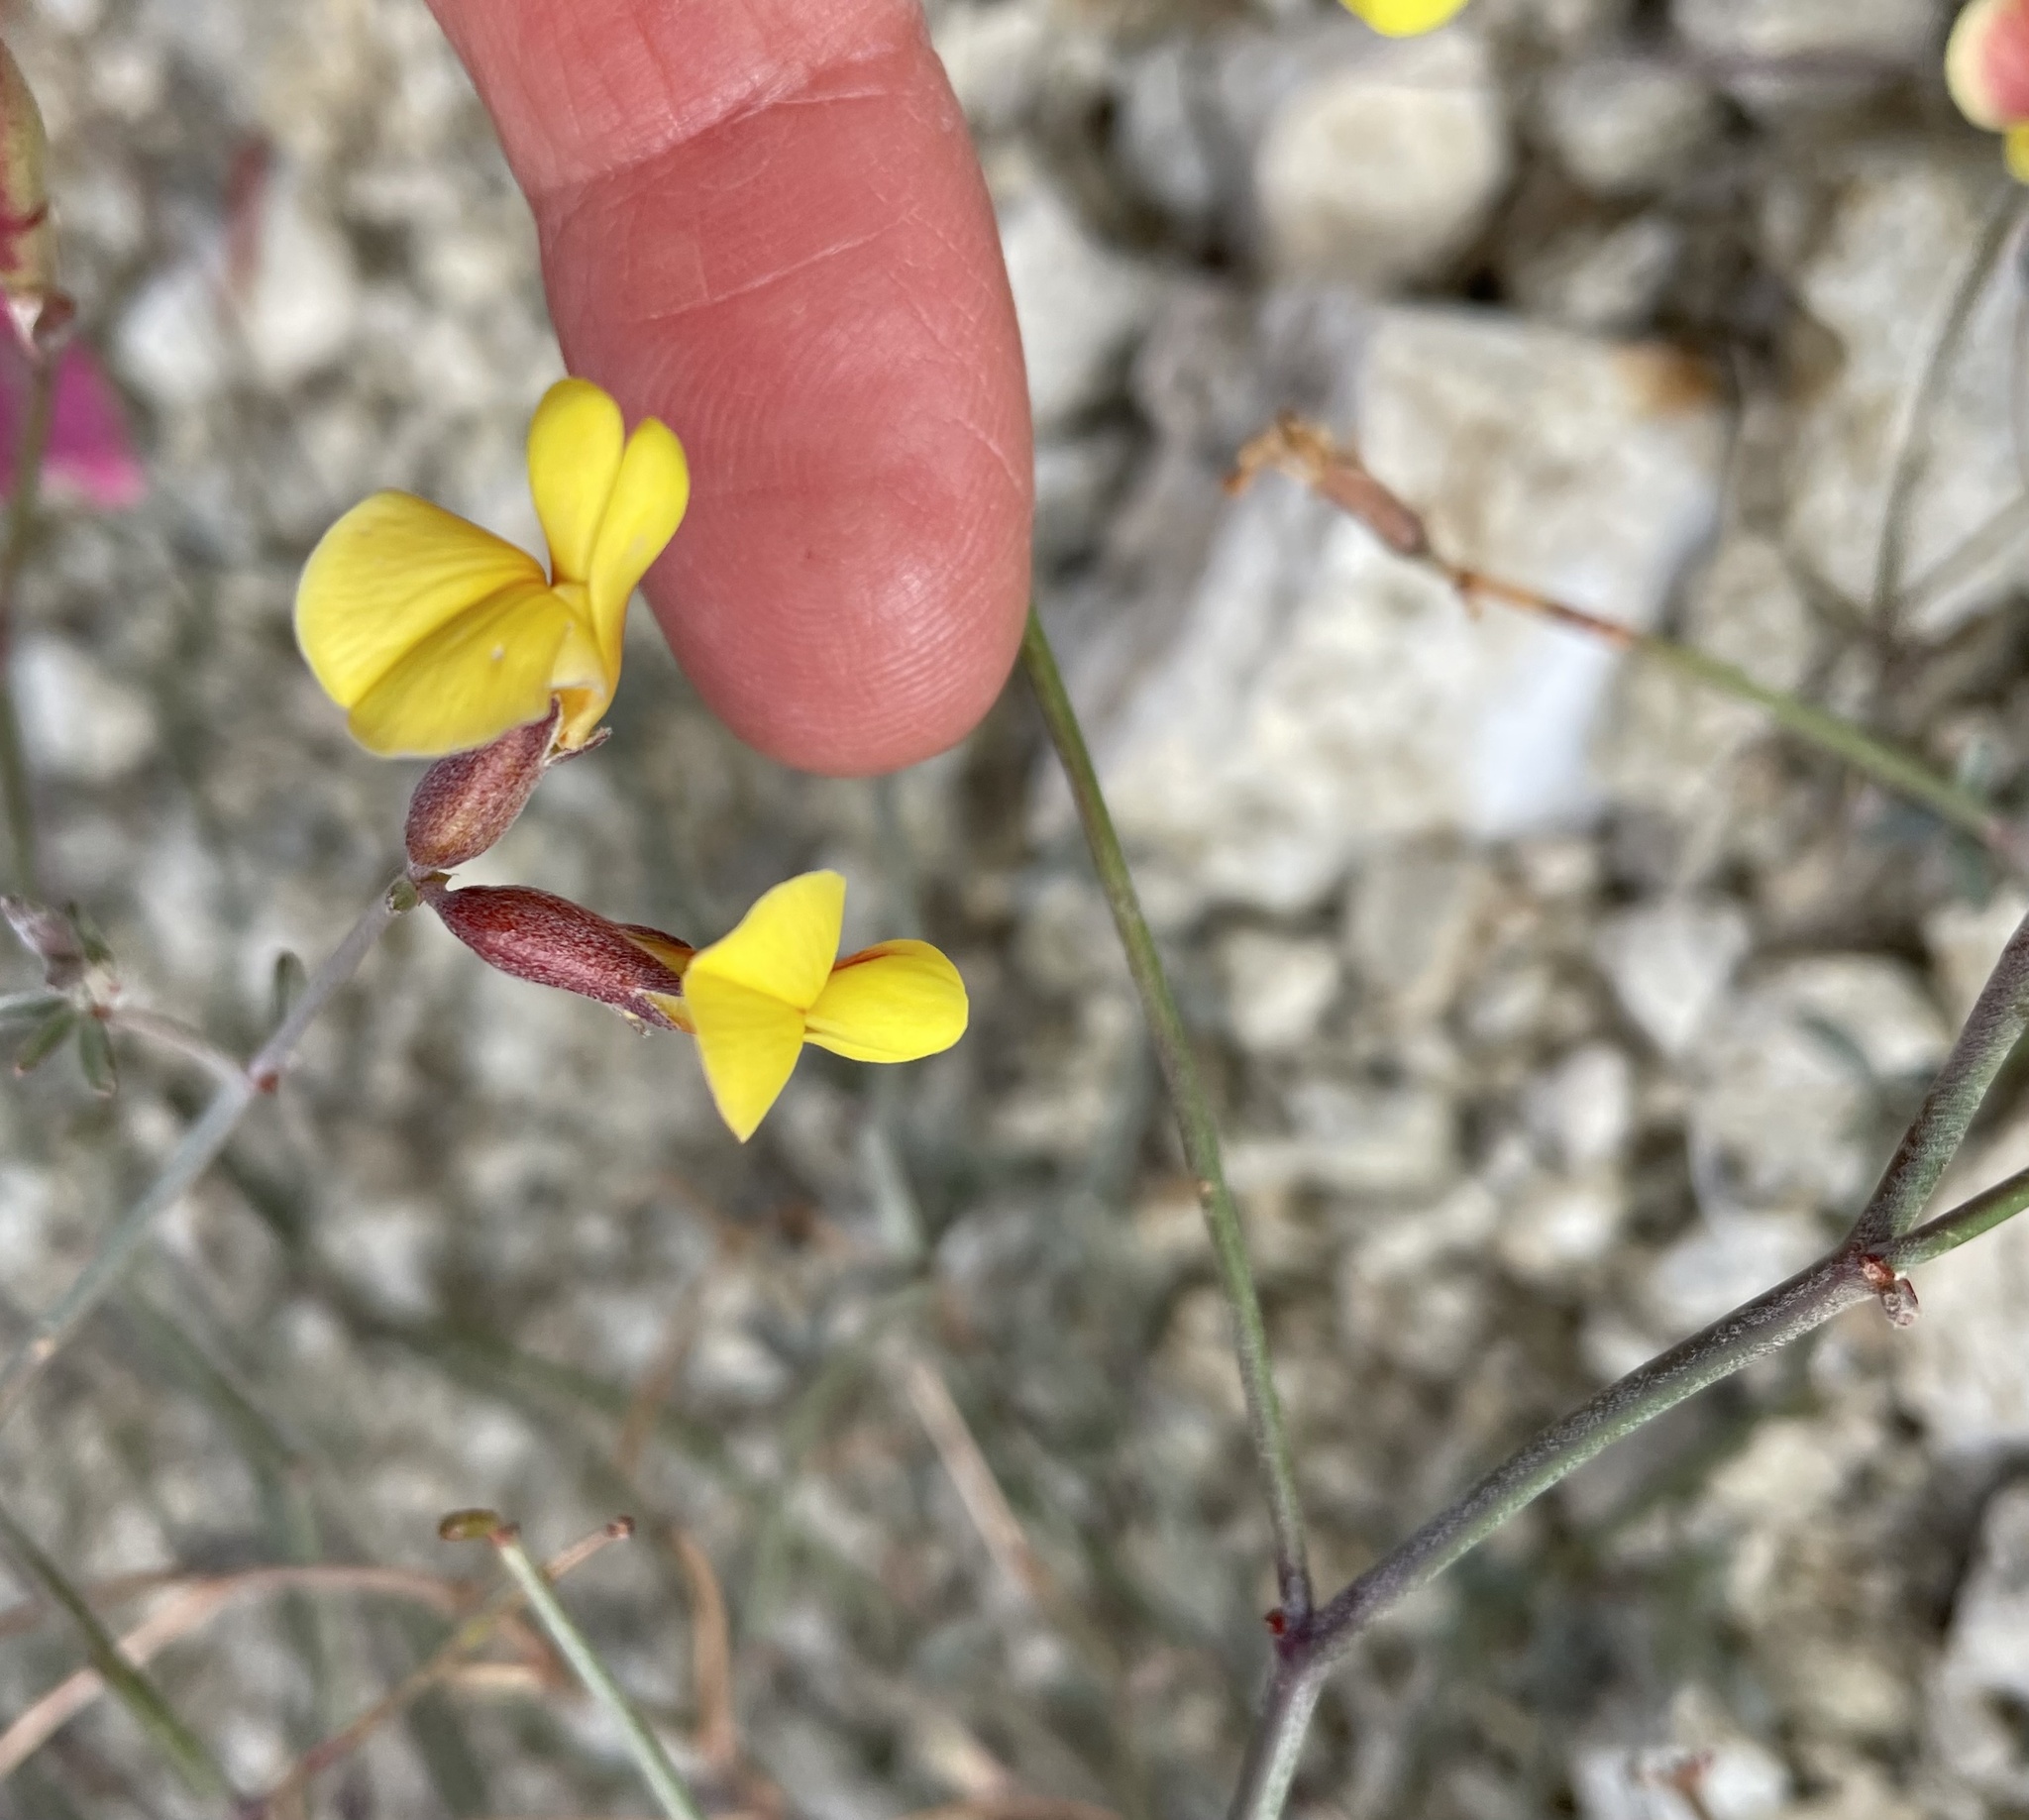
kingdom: Plantae
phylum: Tracheophyta
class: Magnoliopsida
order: Fabales
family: Fabaceae
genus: Acmispon
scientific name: Acmispon rigidus
